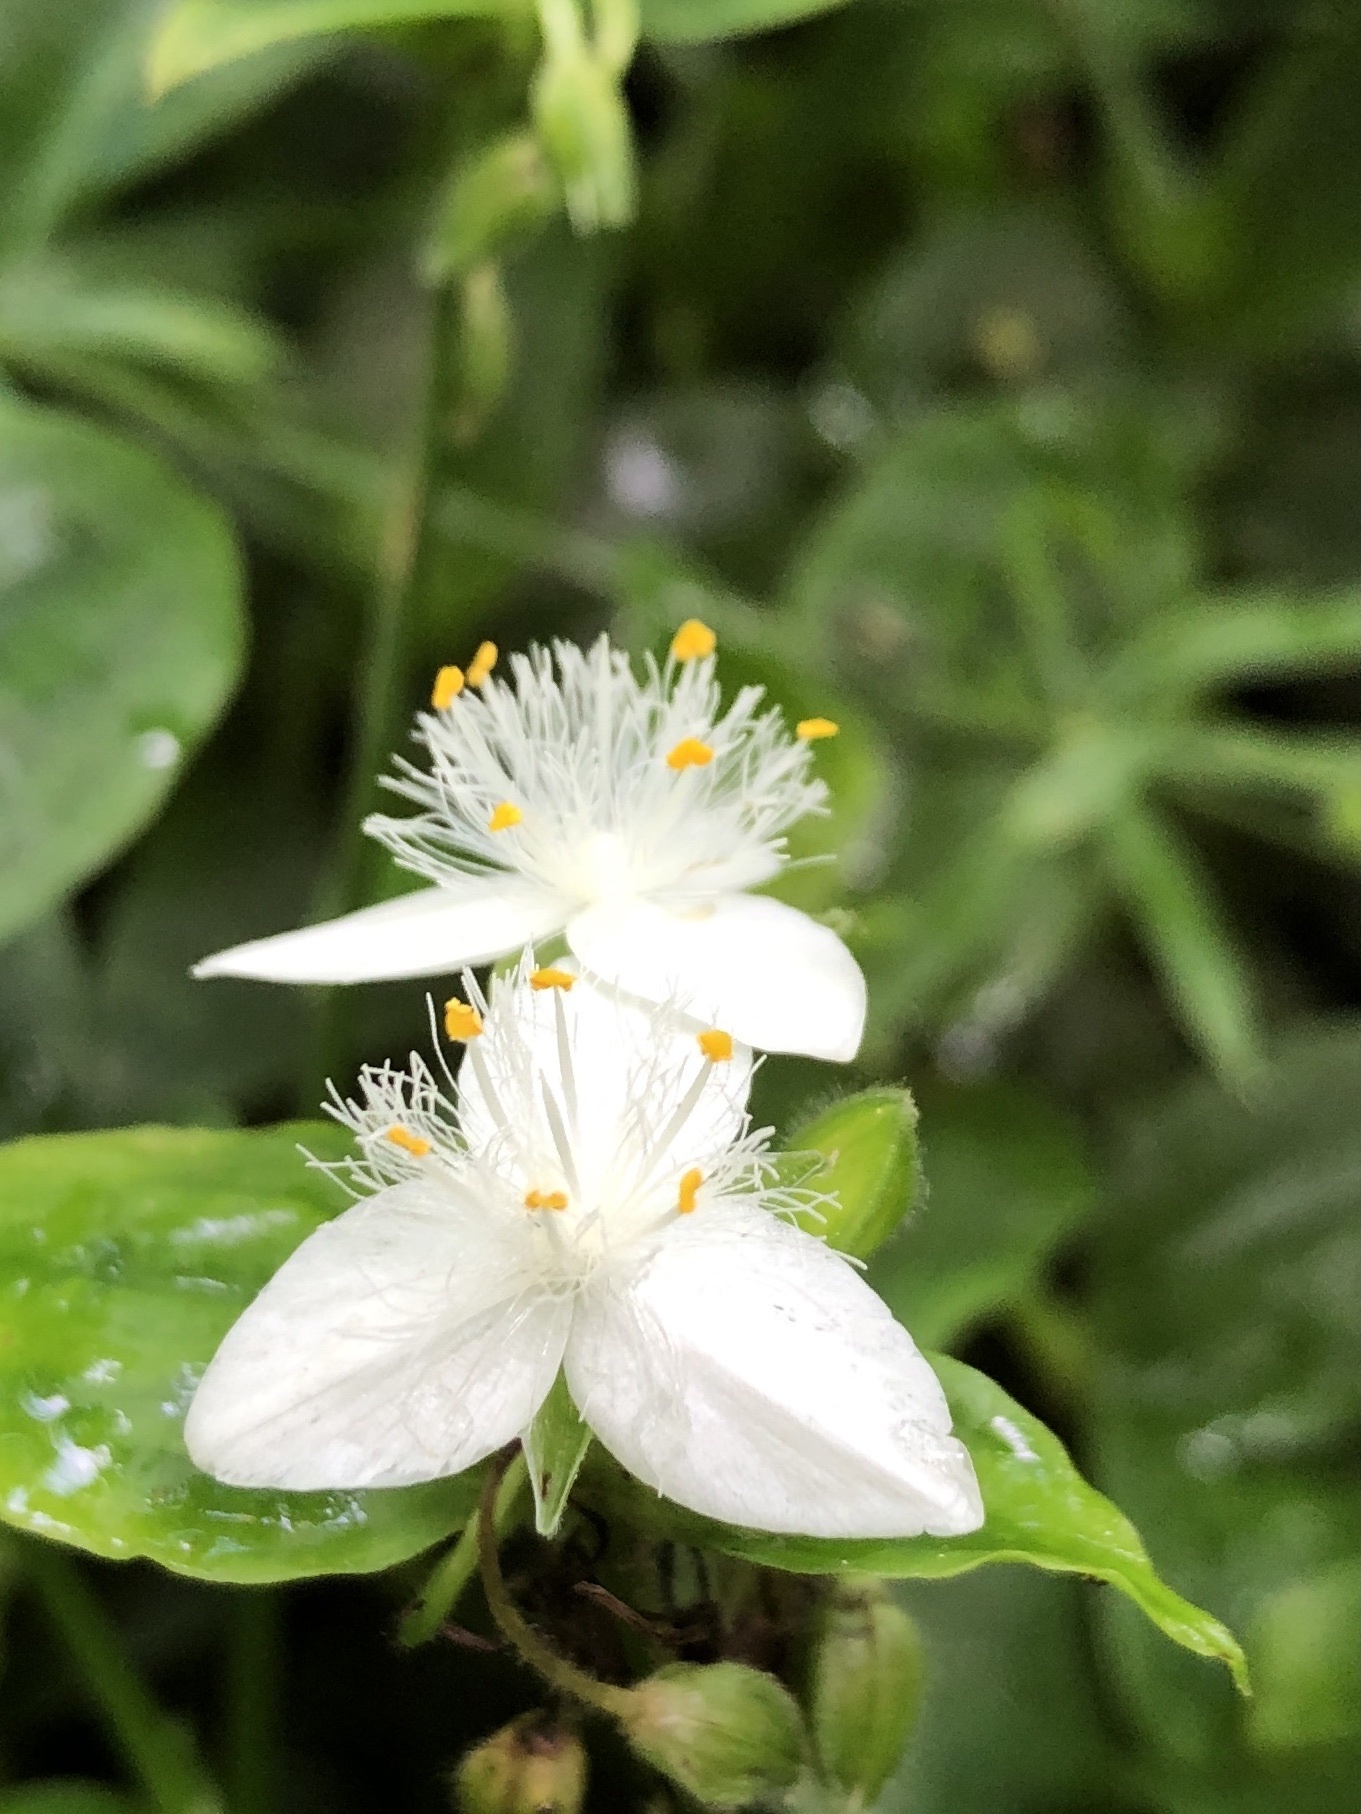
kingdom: Plantae
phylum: Tracheophyta
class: Liliopsida
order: Commelinales
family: Commelinaceae
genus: Tradescantia
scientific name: Tradescantia fluminensis
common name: Wandering-jew
